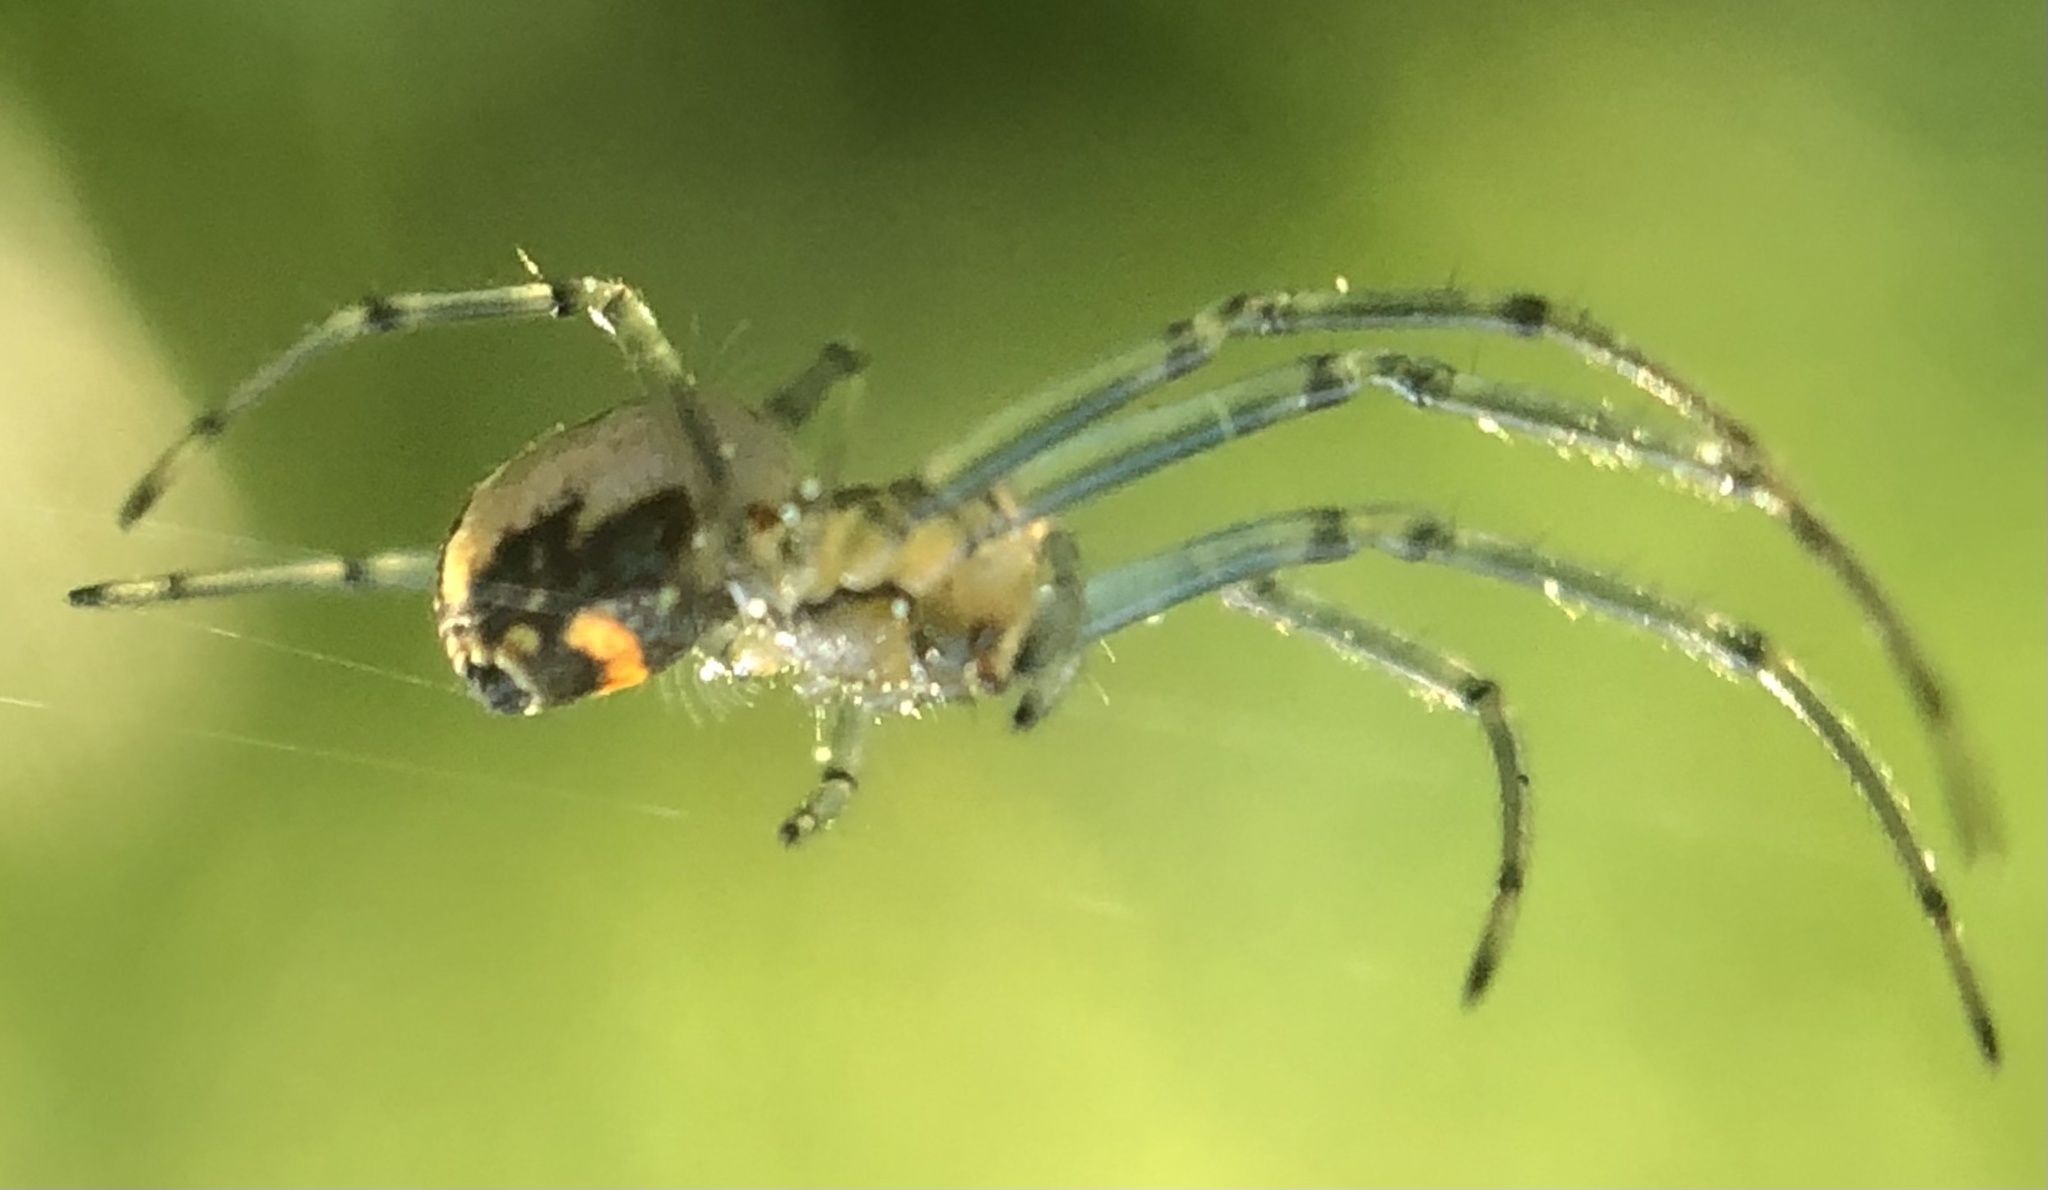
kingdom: Animalia
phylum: Arthropoda
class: Arachnida
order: Araneae
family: Tetragnathidae
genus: Leucauge
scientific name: Leucauge venusta
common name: Longjawed orb weavers
